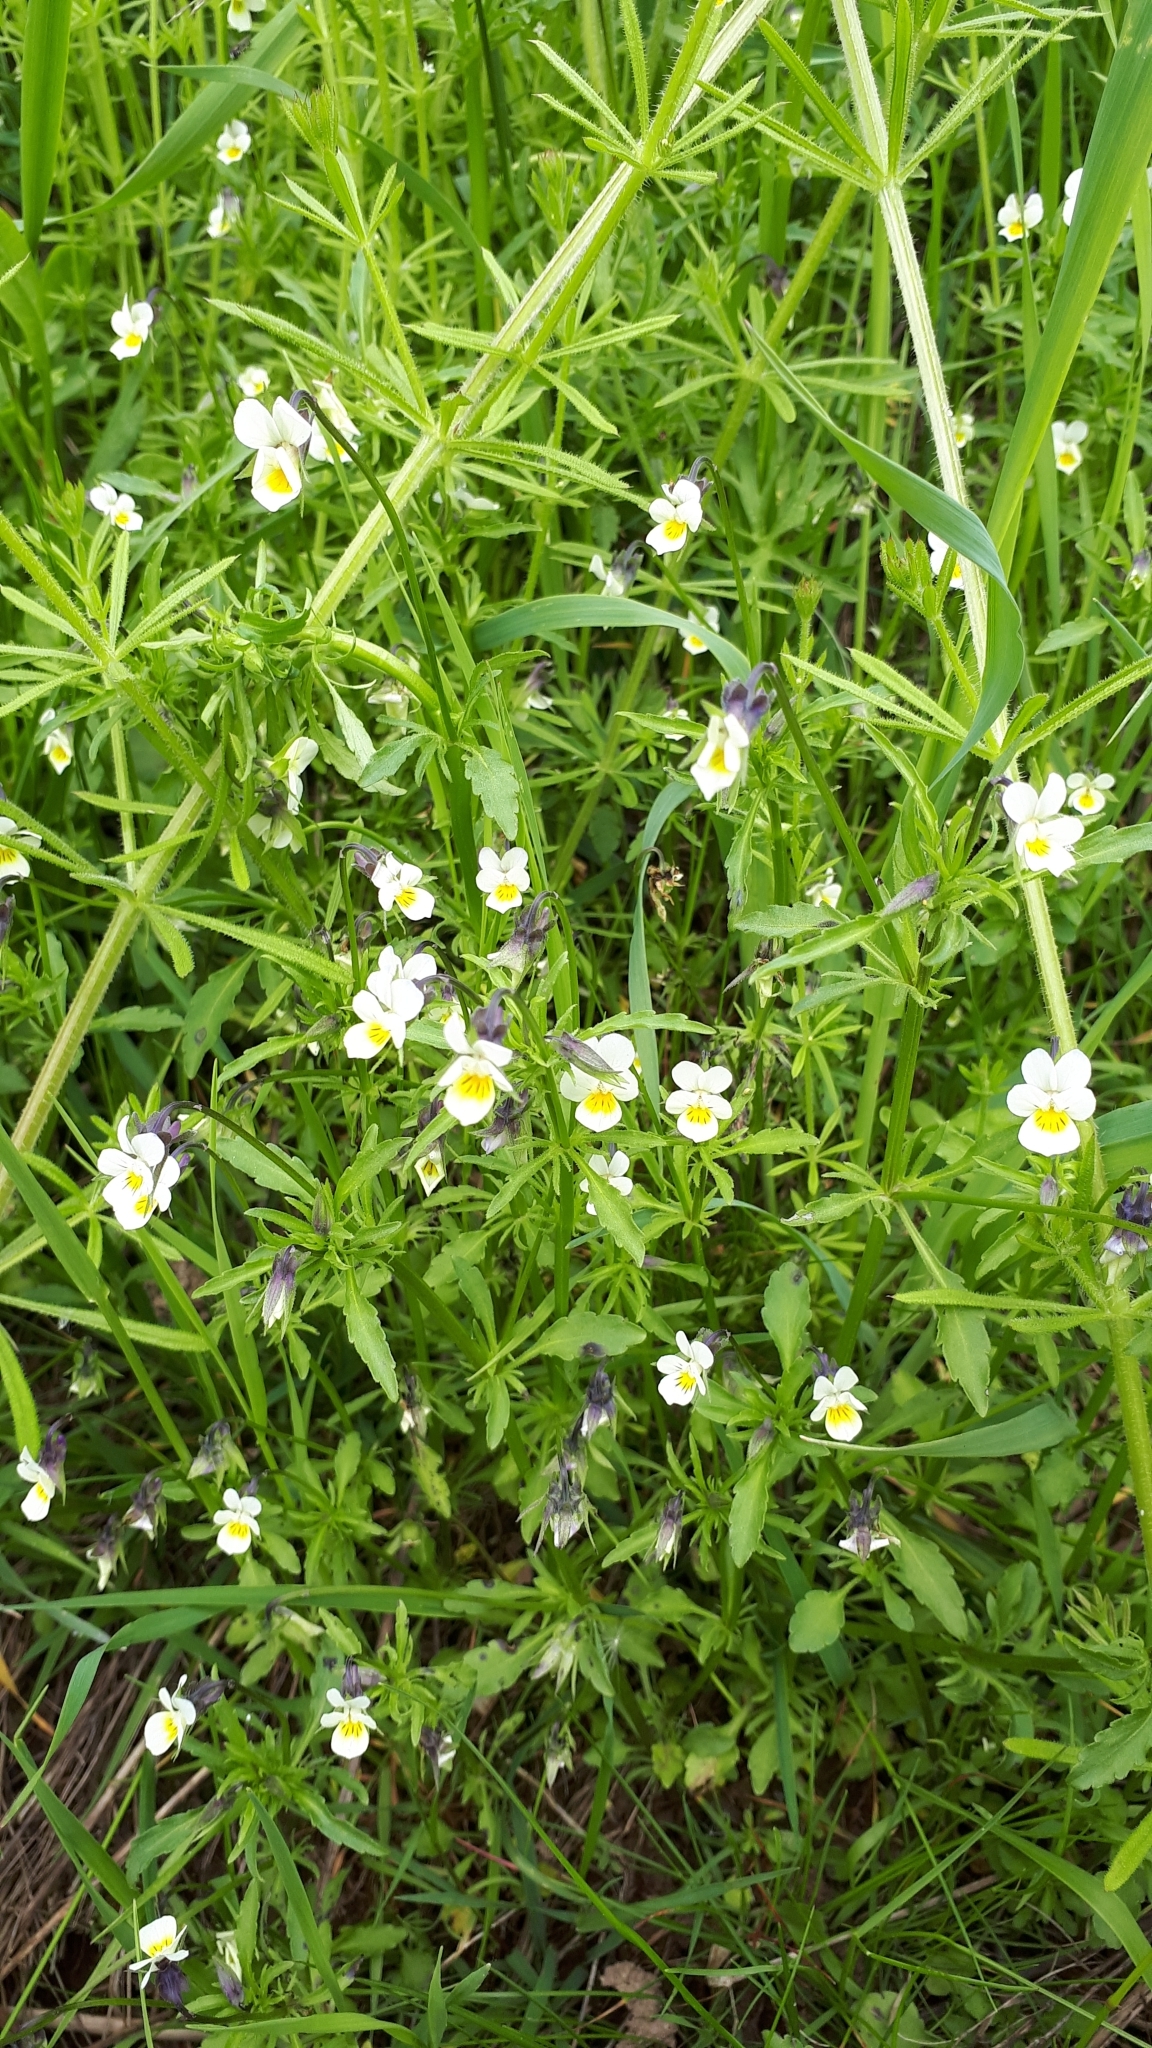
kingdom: Plantae
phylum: Tracheophyta
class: Magnoliopsida
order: Malpighiales
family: Violaceae
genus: Viola
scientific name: Viola arvensis
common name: Field pansy
